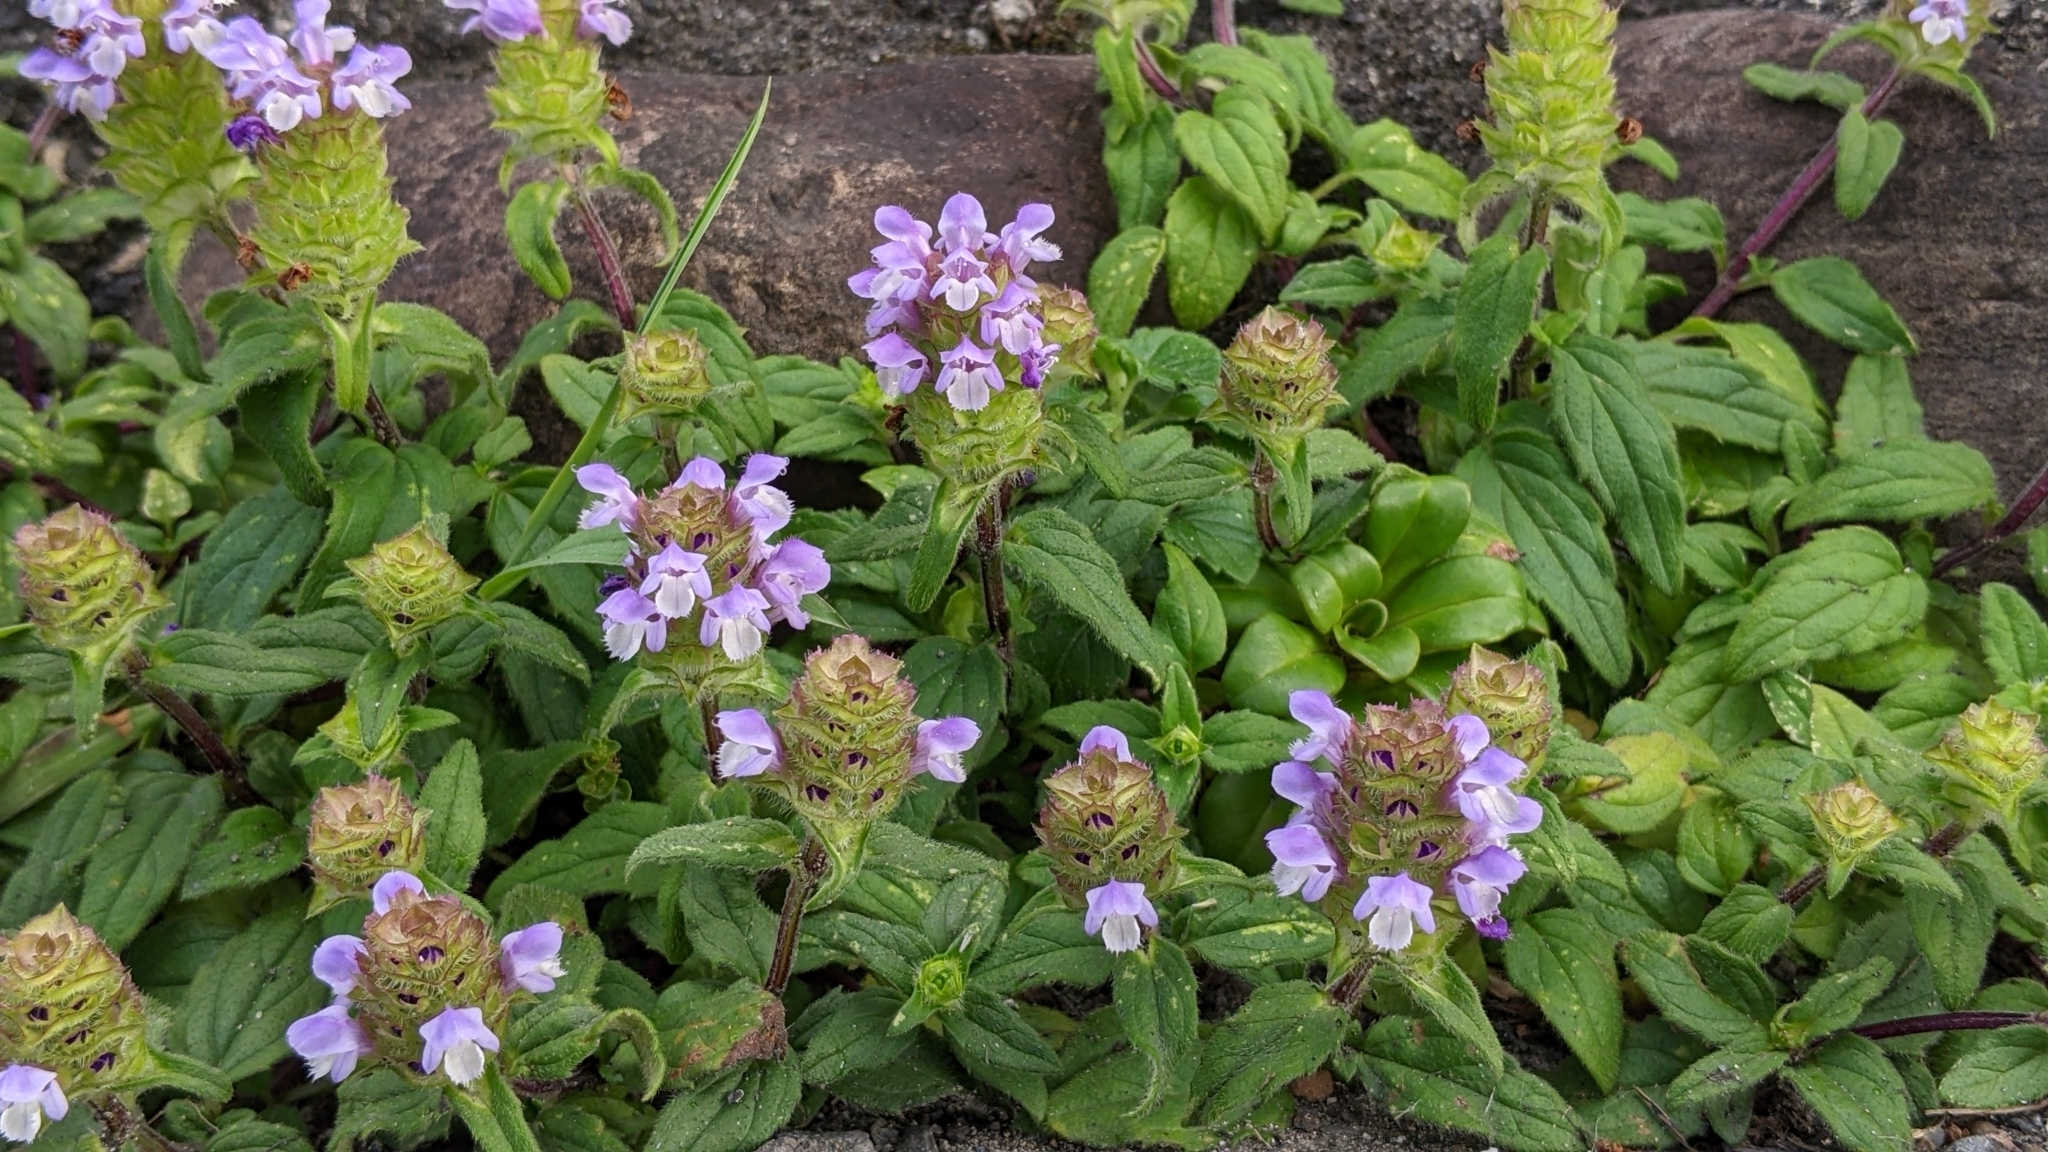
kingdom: Plantae
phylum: Tracheophyta
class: Magnoliopsida
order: Lamiales
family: Lamiaceae
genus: Prunella
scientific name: Prunella vulgaris
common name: Heal-all
